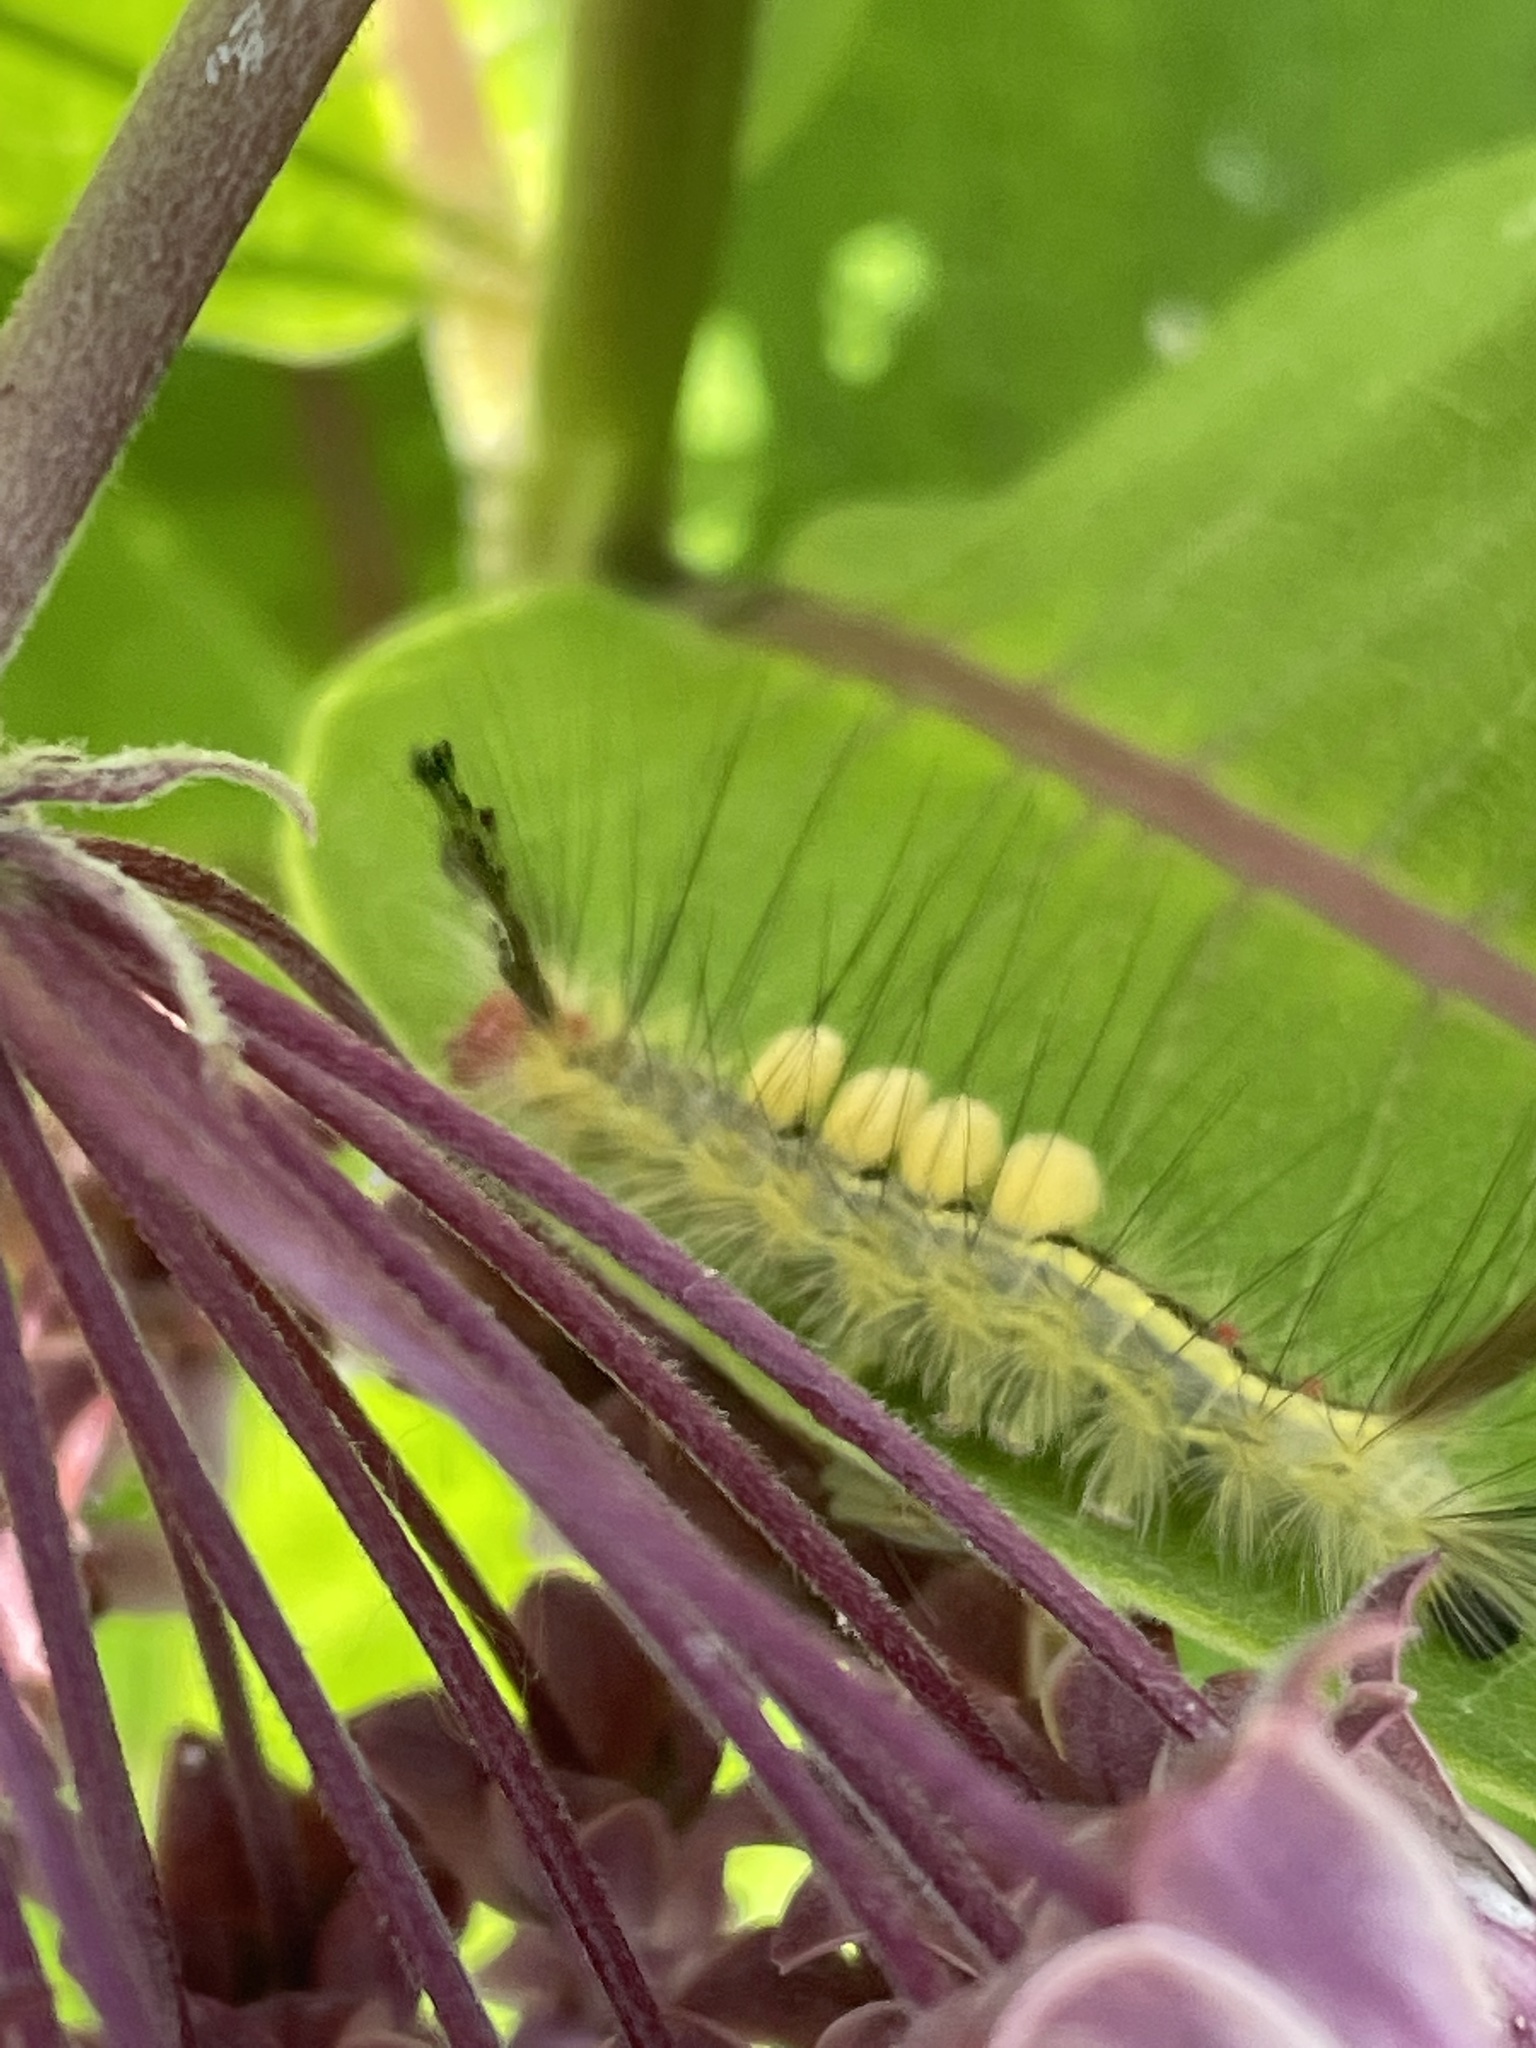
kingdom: Animalia
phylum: Arthropoda
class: Insecta
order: Lepidoptera
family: Erebidae
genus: Orgyia
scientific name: Orgyia leucostigma
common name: White-marked tussock moth
